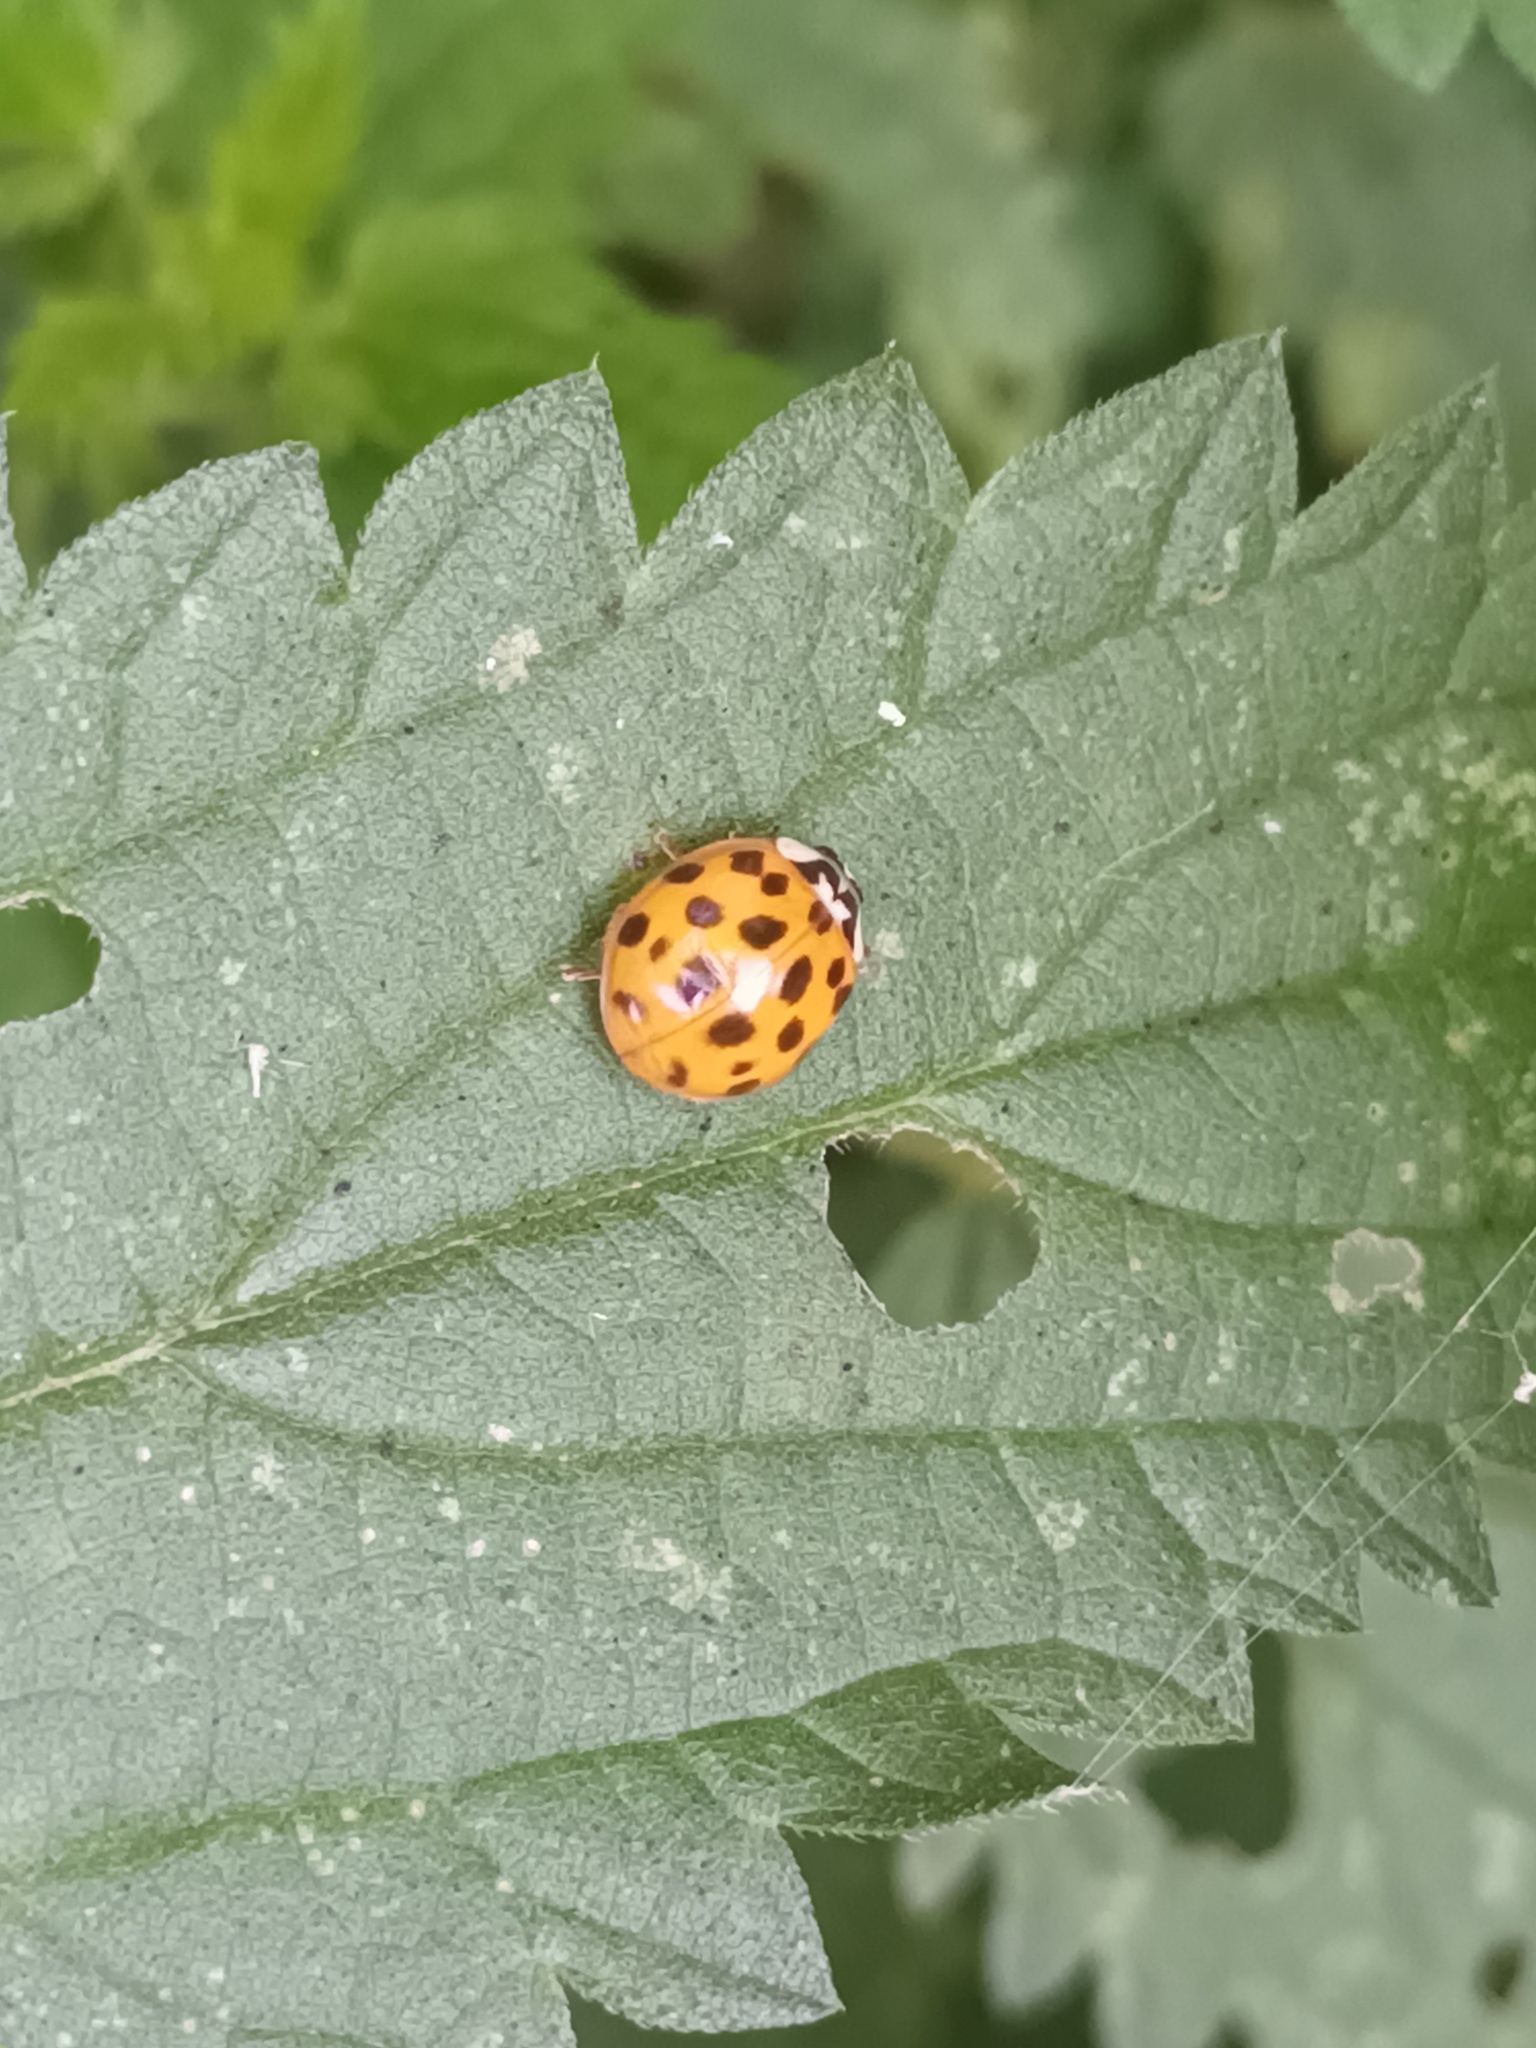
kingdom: Animalia
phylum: Arthropoda
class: Insecta
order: Coleoptera
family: Coccinellidae
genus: Harmonia
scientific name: Harmonia axyridis
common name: Harlequin ladybird
